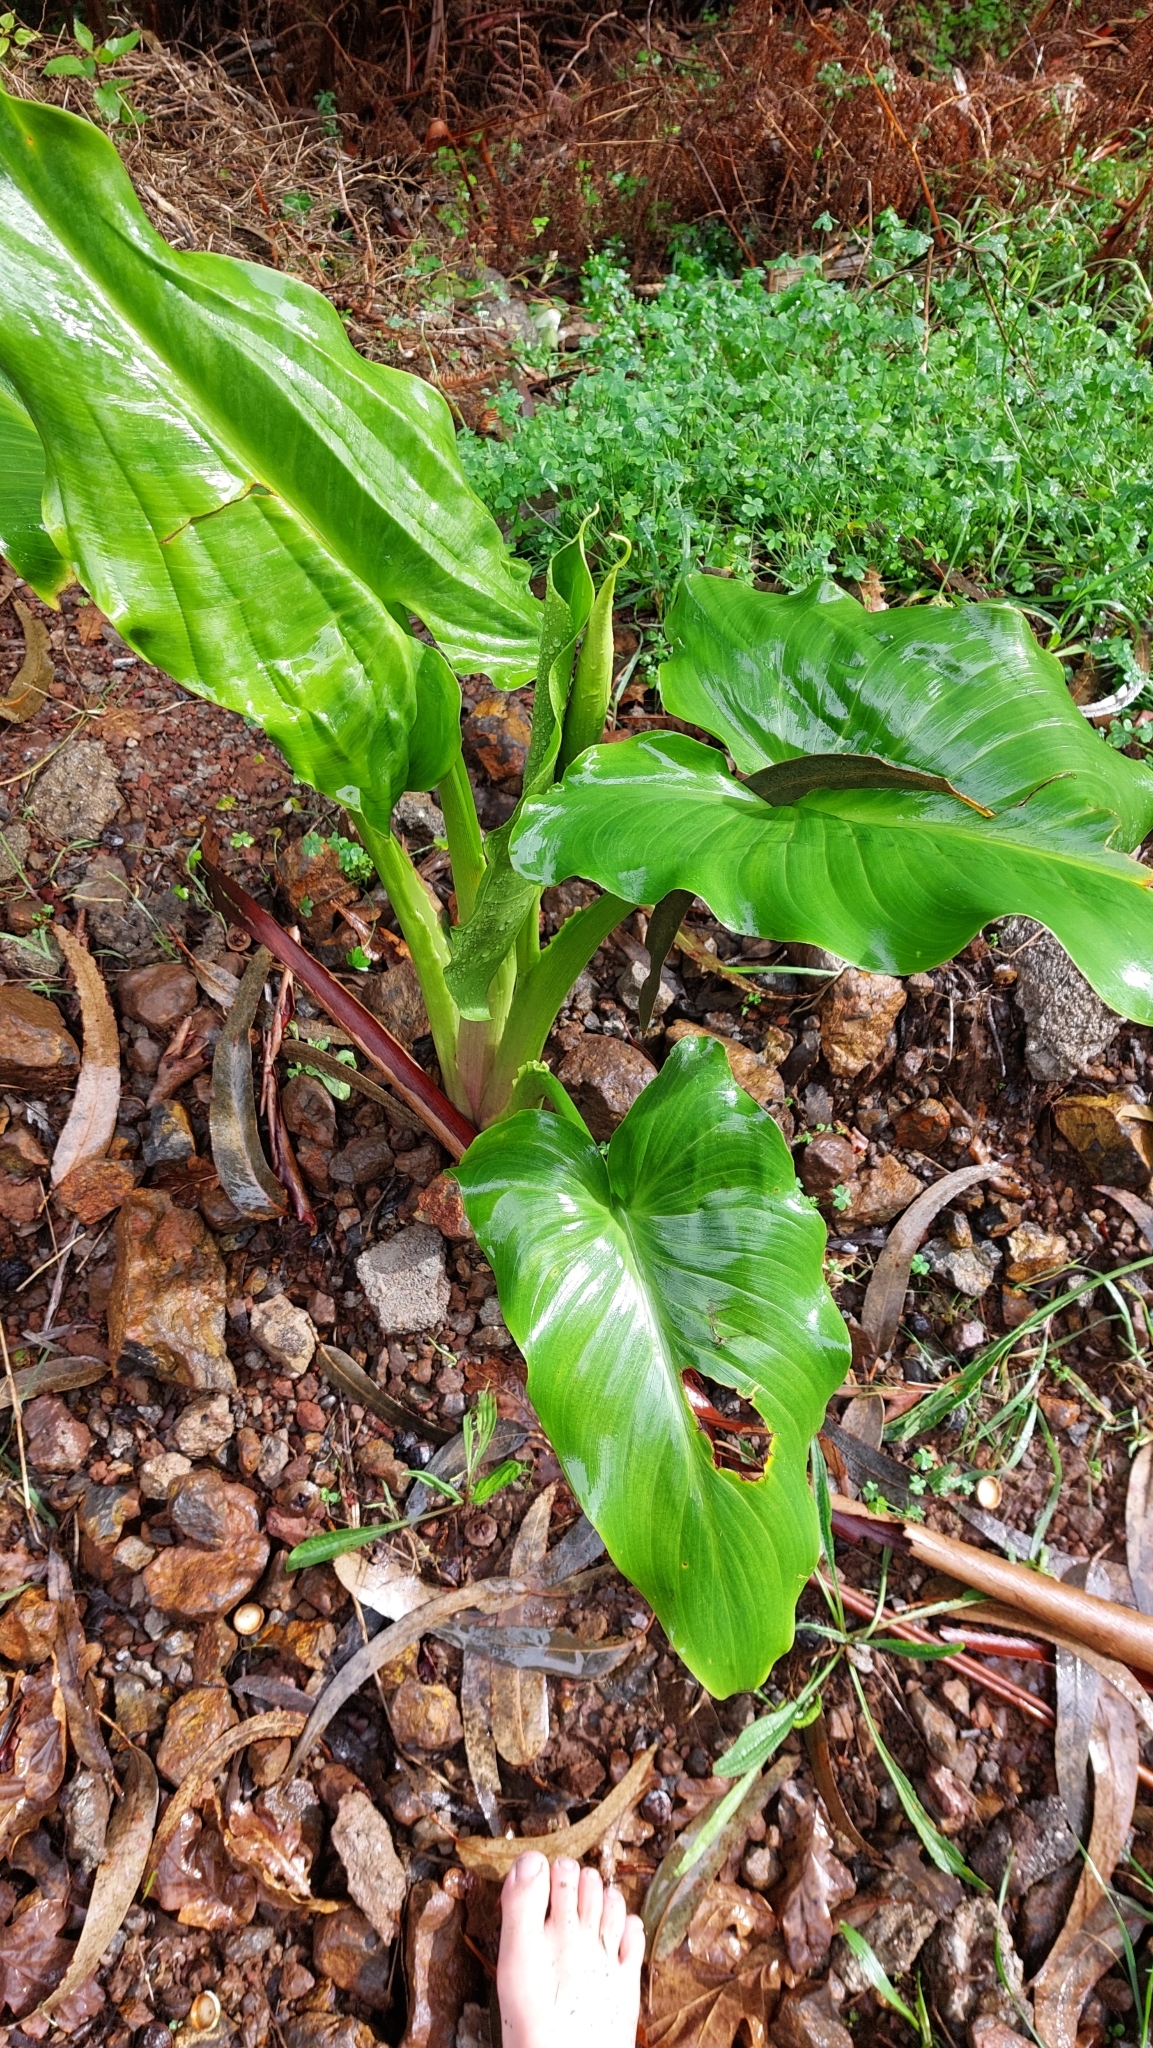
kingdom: Plantae
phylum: Tracheophyta
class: Liliopsida
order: Alismatales
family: Araceae
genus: Zantedeschia
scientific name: Zantedeschia aethiopica
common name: Altar-lily
